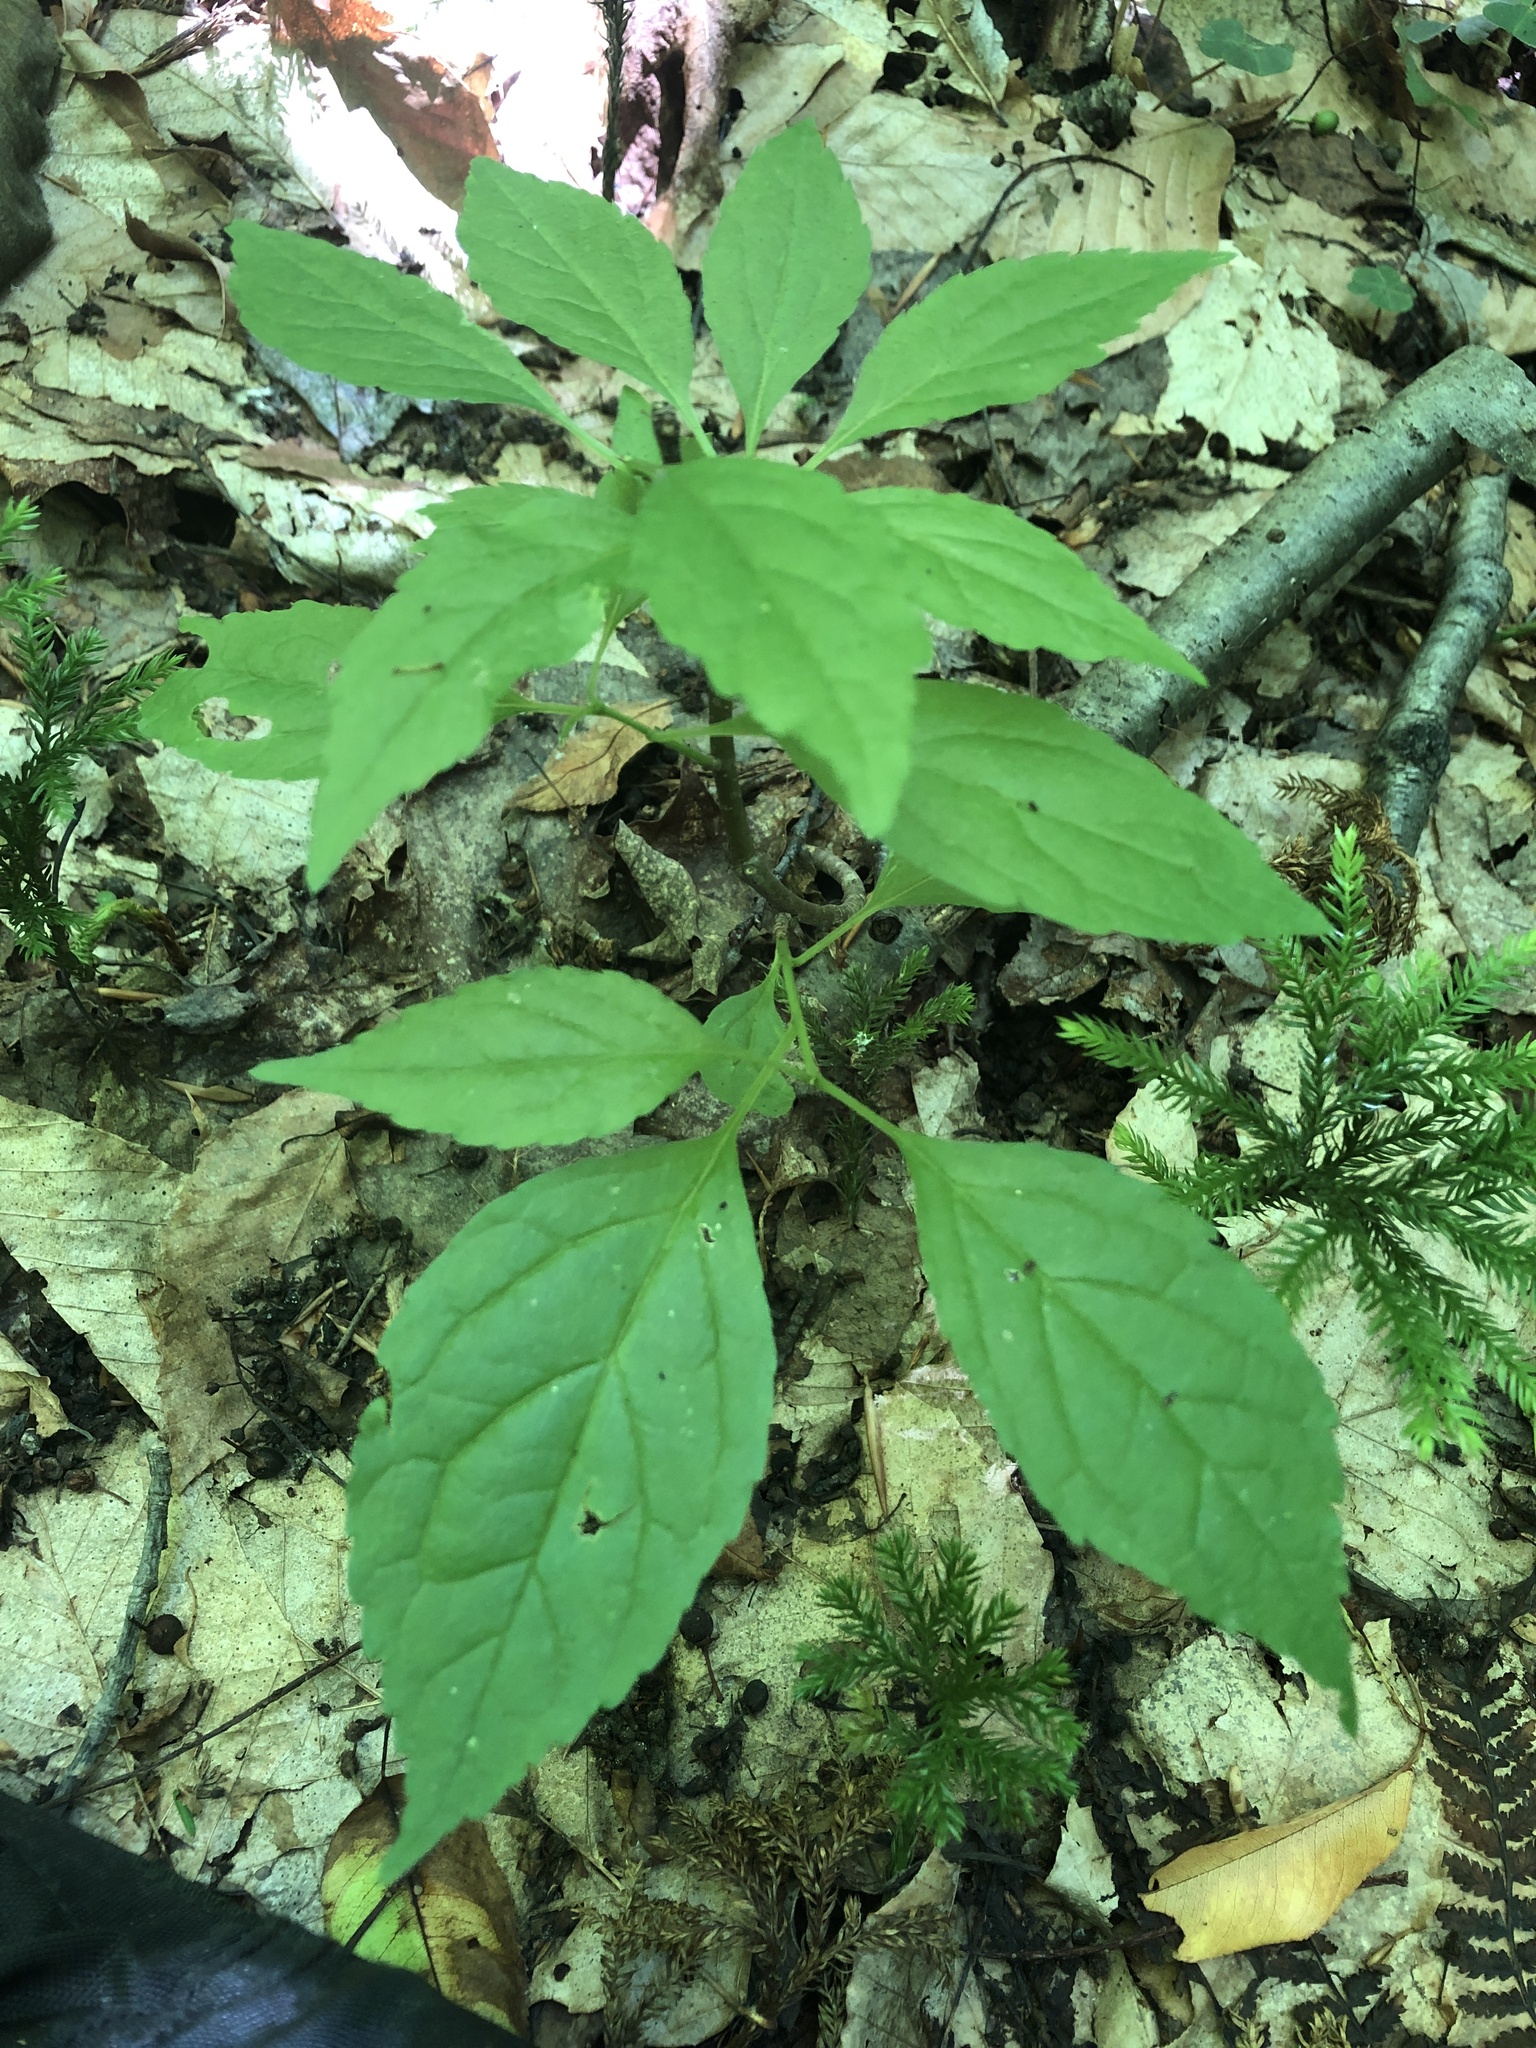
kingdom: Plantae
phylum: Tracheophyta
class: Magnoliopsida
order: Aquifoliales
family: Aquifoliaceae
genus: Ilex
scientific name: Ilex montana
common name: Mountain winterberry
